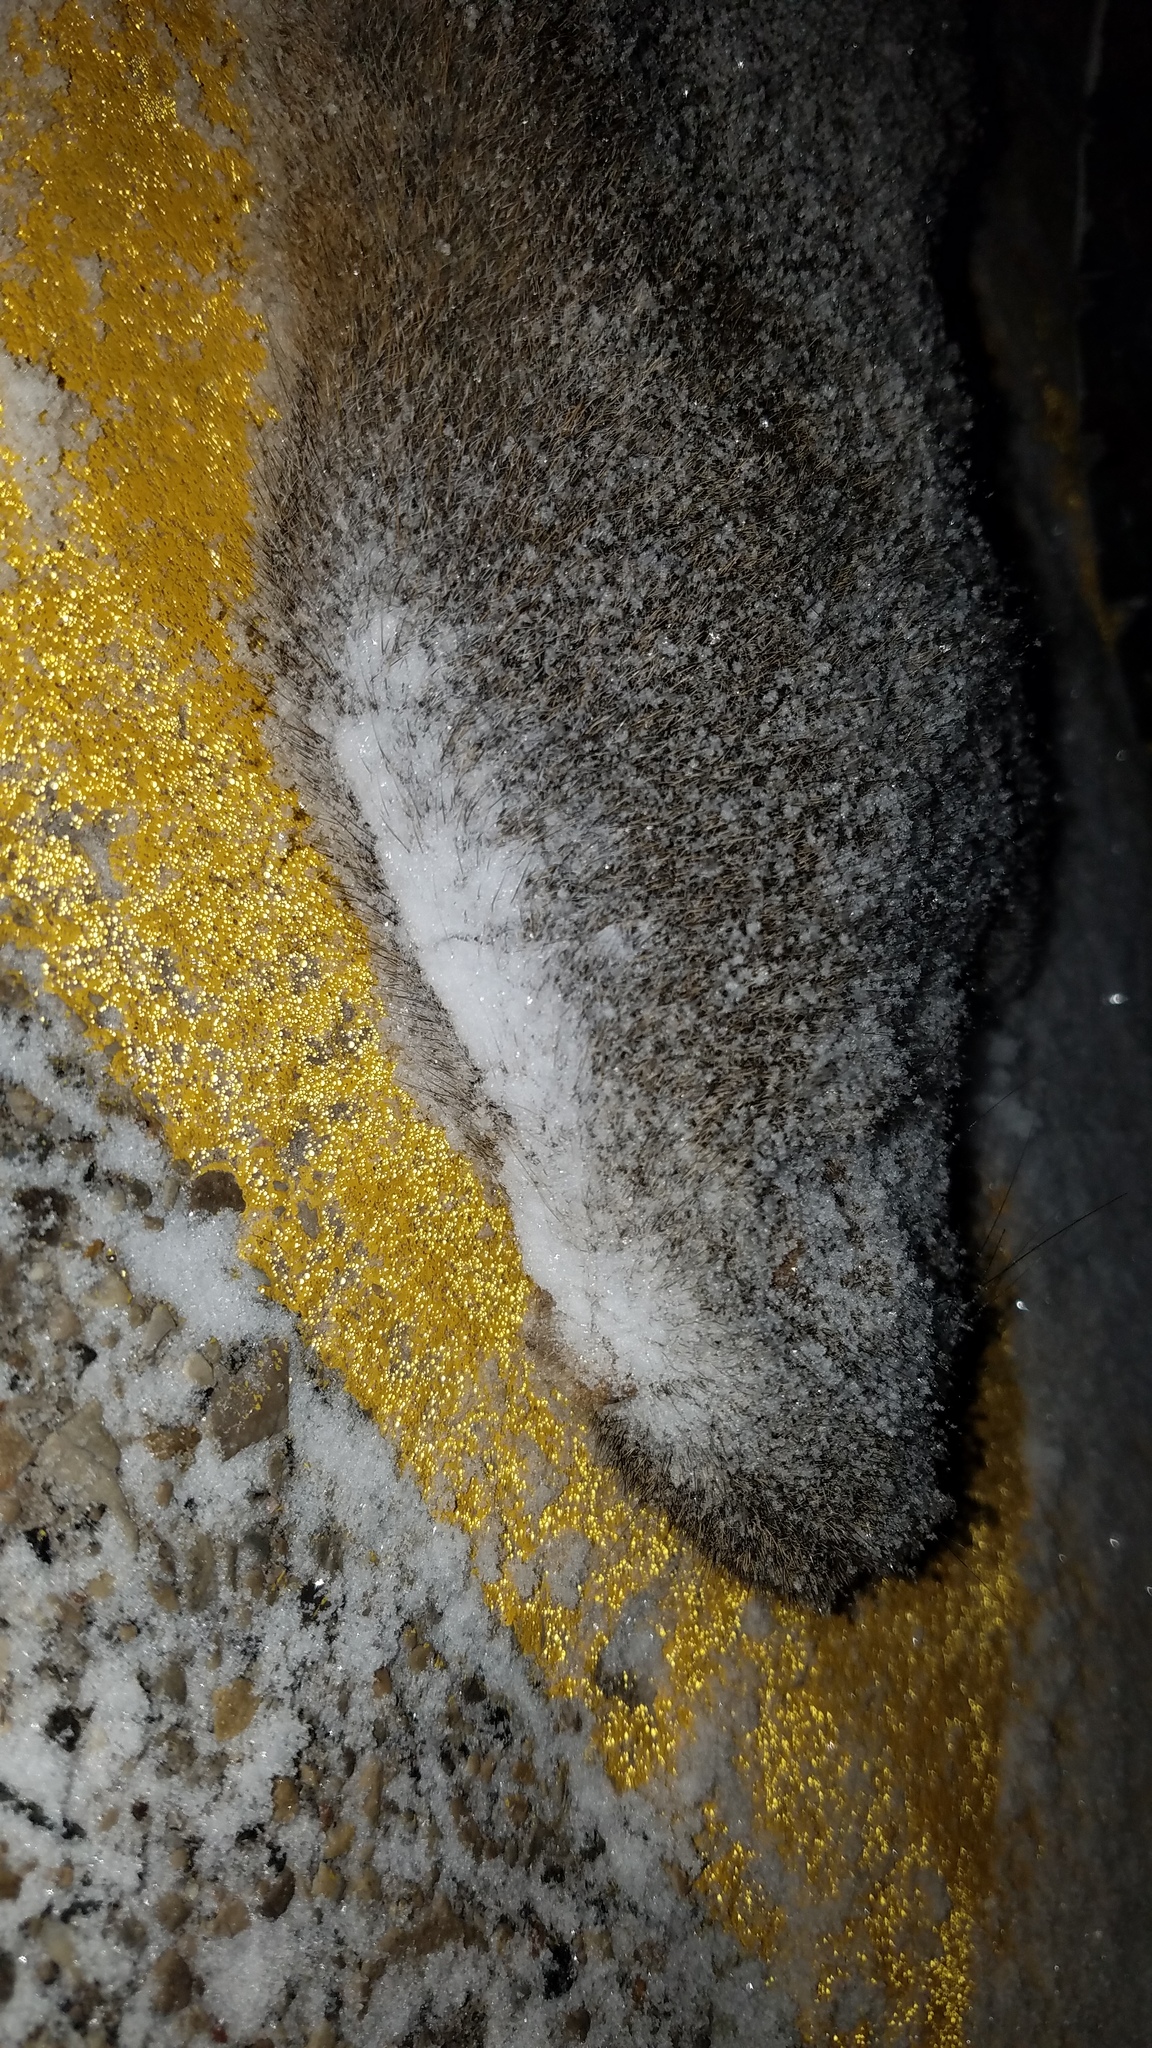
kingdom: Animalia
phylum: Chordata
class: Mammalia
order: Rodentia
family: Sciuridae
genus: Sciurus
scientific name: Sciurus carolinensis
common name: Eastern gray squirrel
